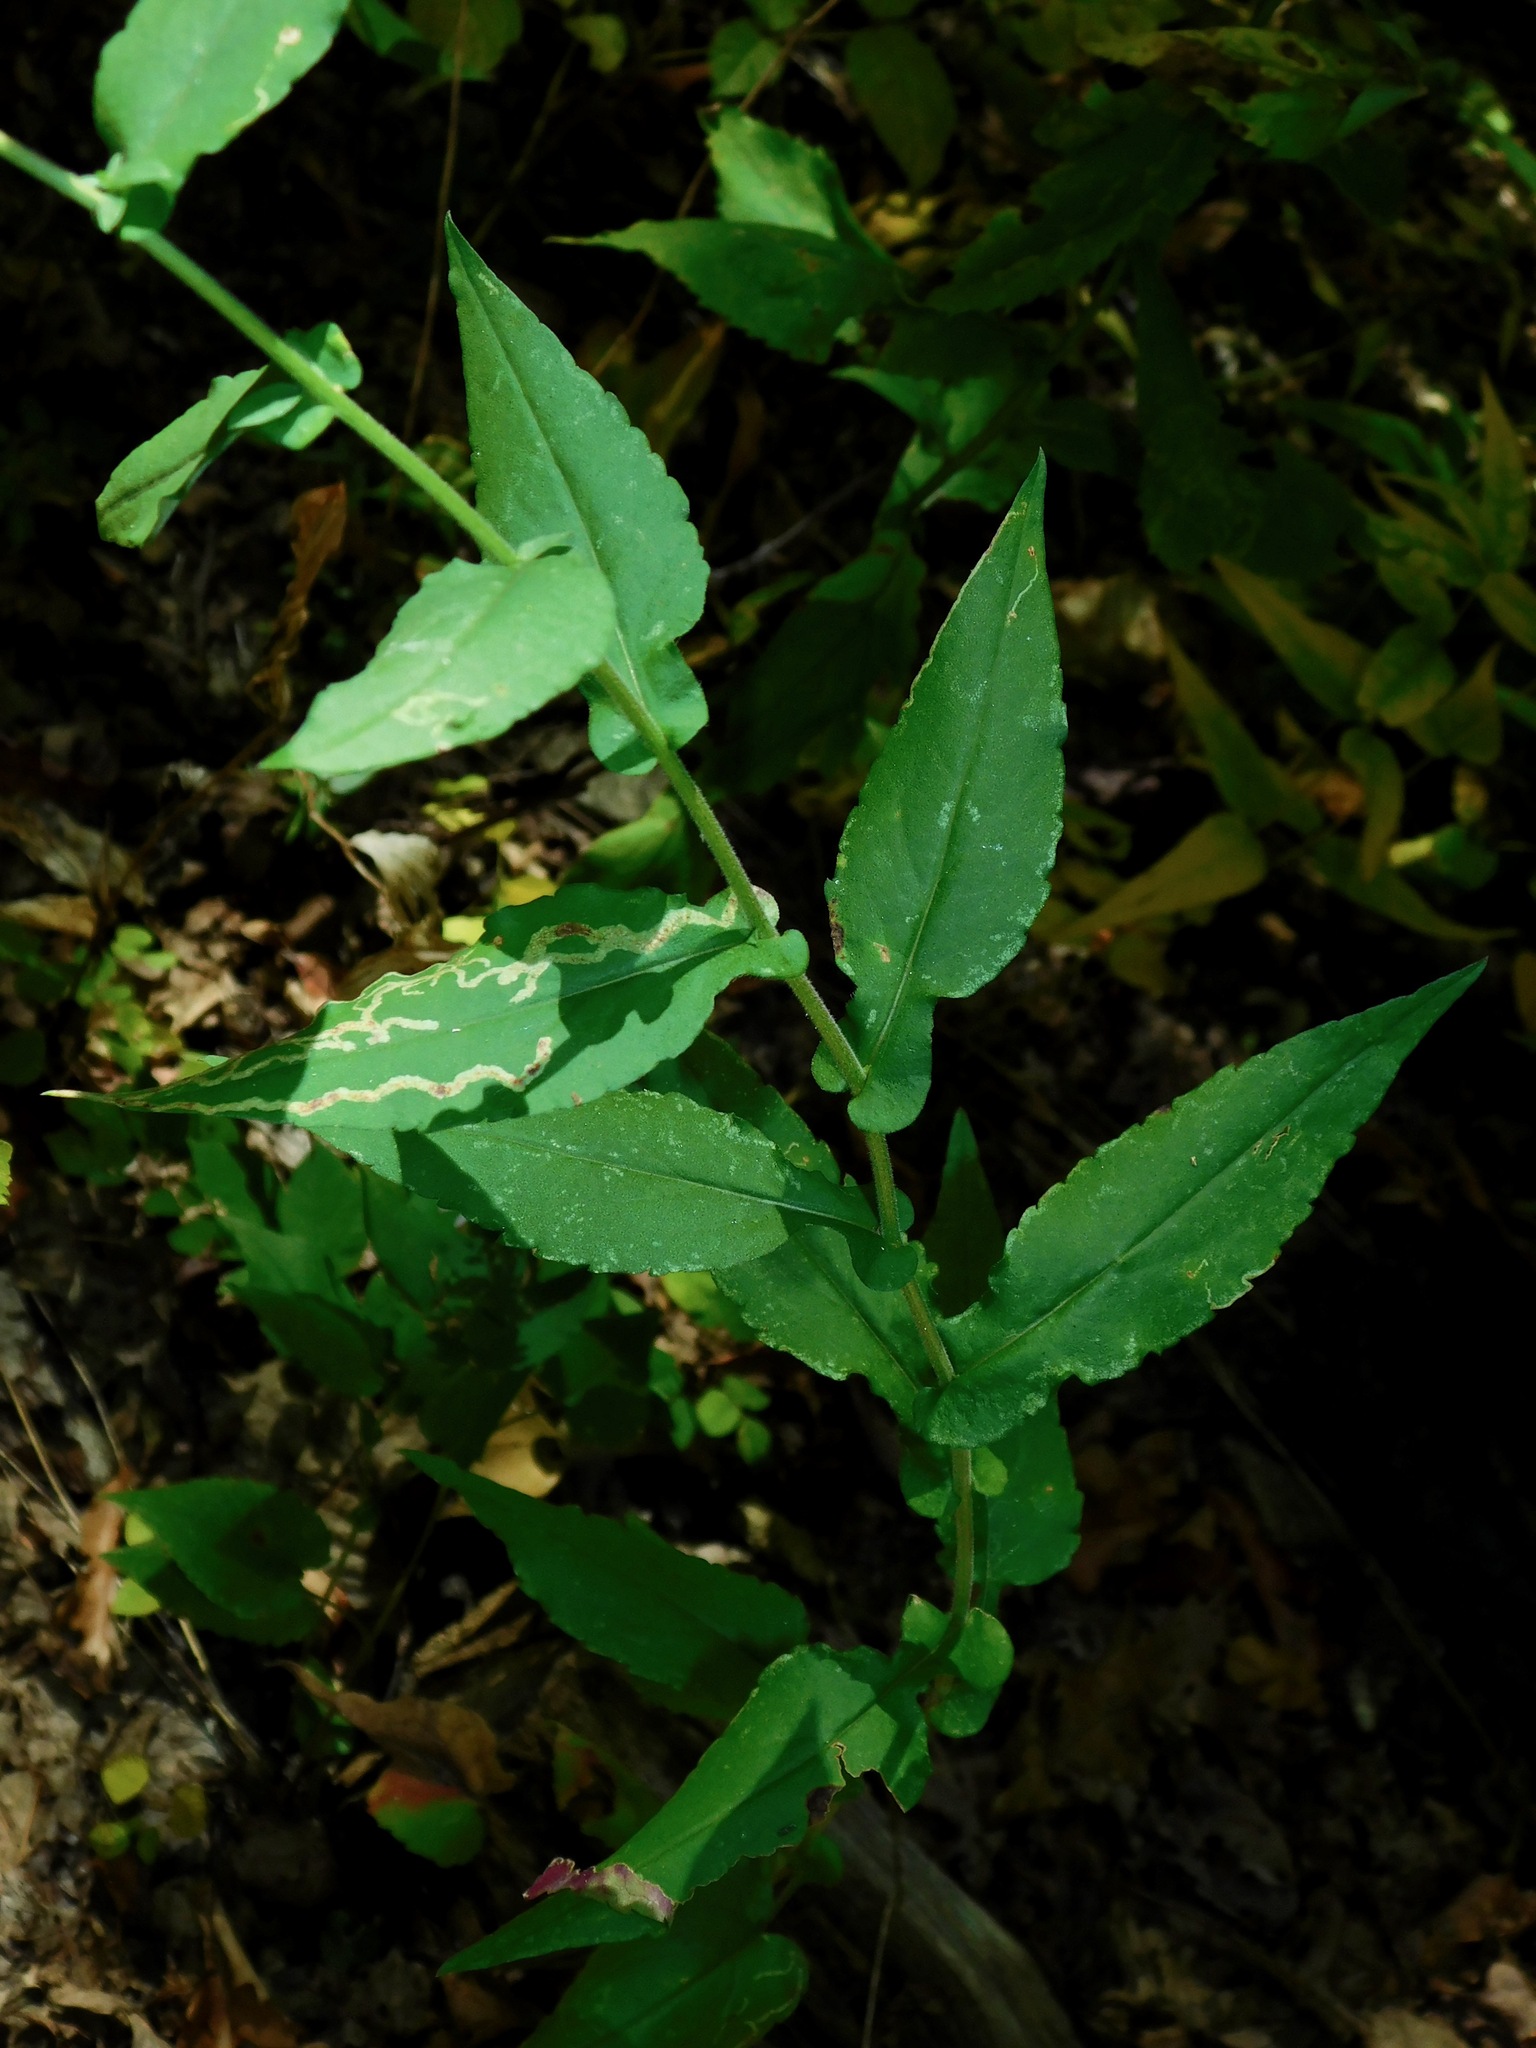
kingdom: Plantae
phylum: Tracheophyta
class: Magnoliopsida
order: Asterales
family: Asteraceae
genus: Symphyotrichum
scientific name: Symphyotrichum undulatum
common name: Clasping heart-leaf aster
